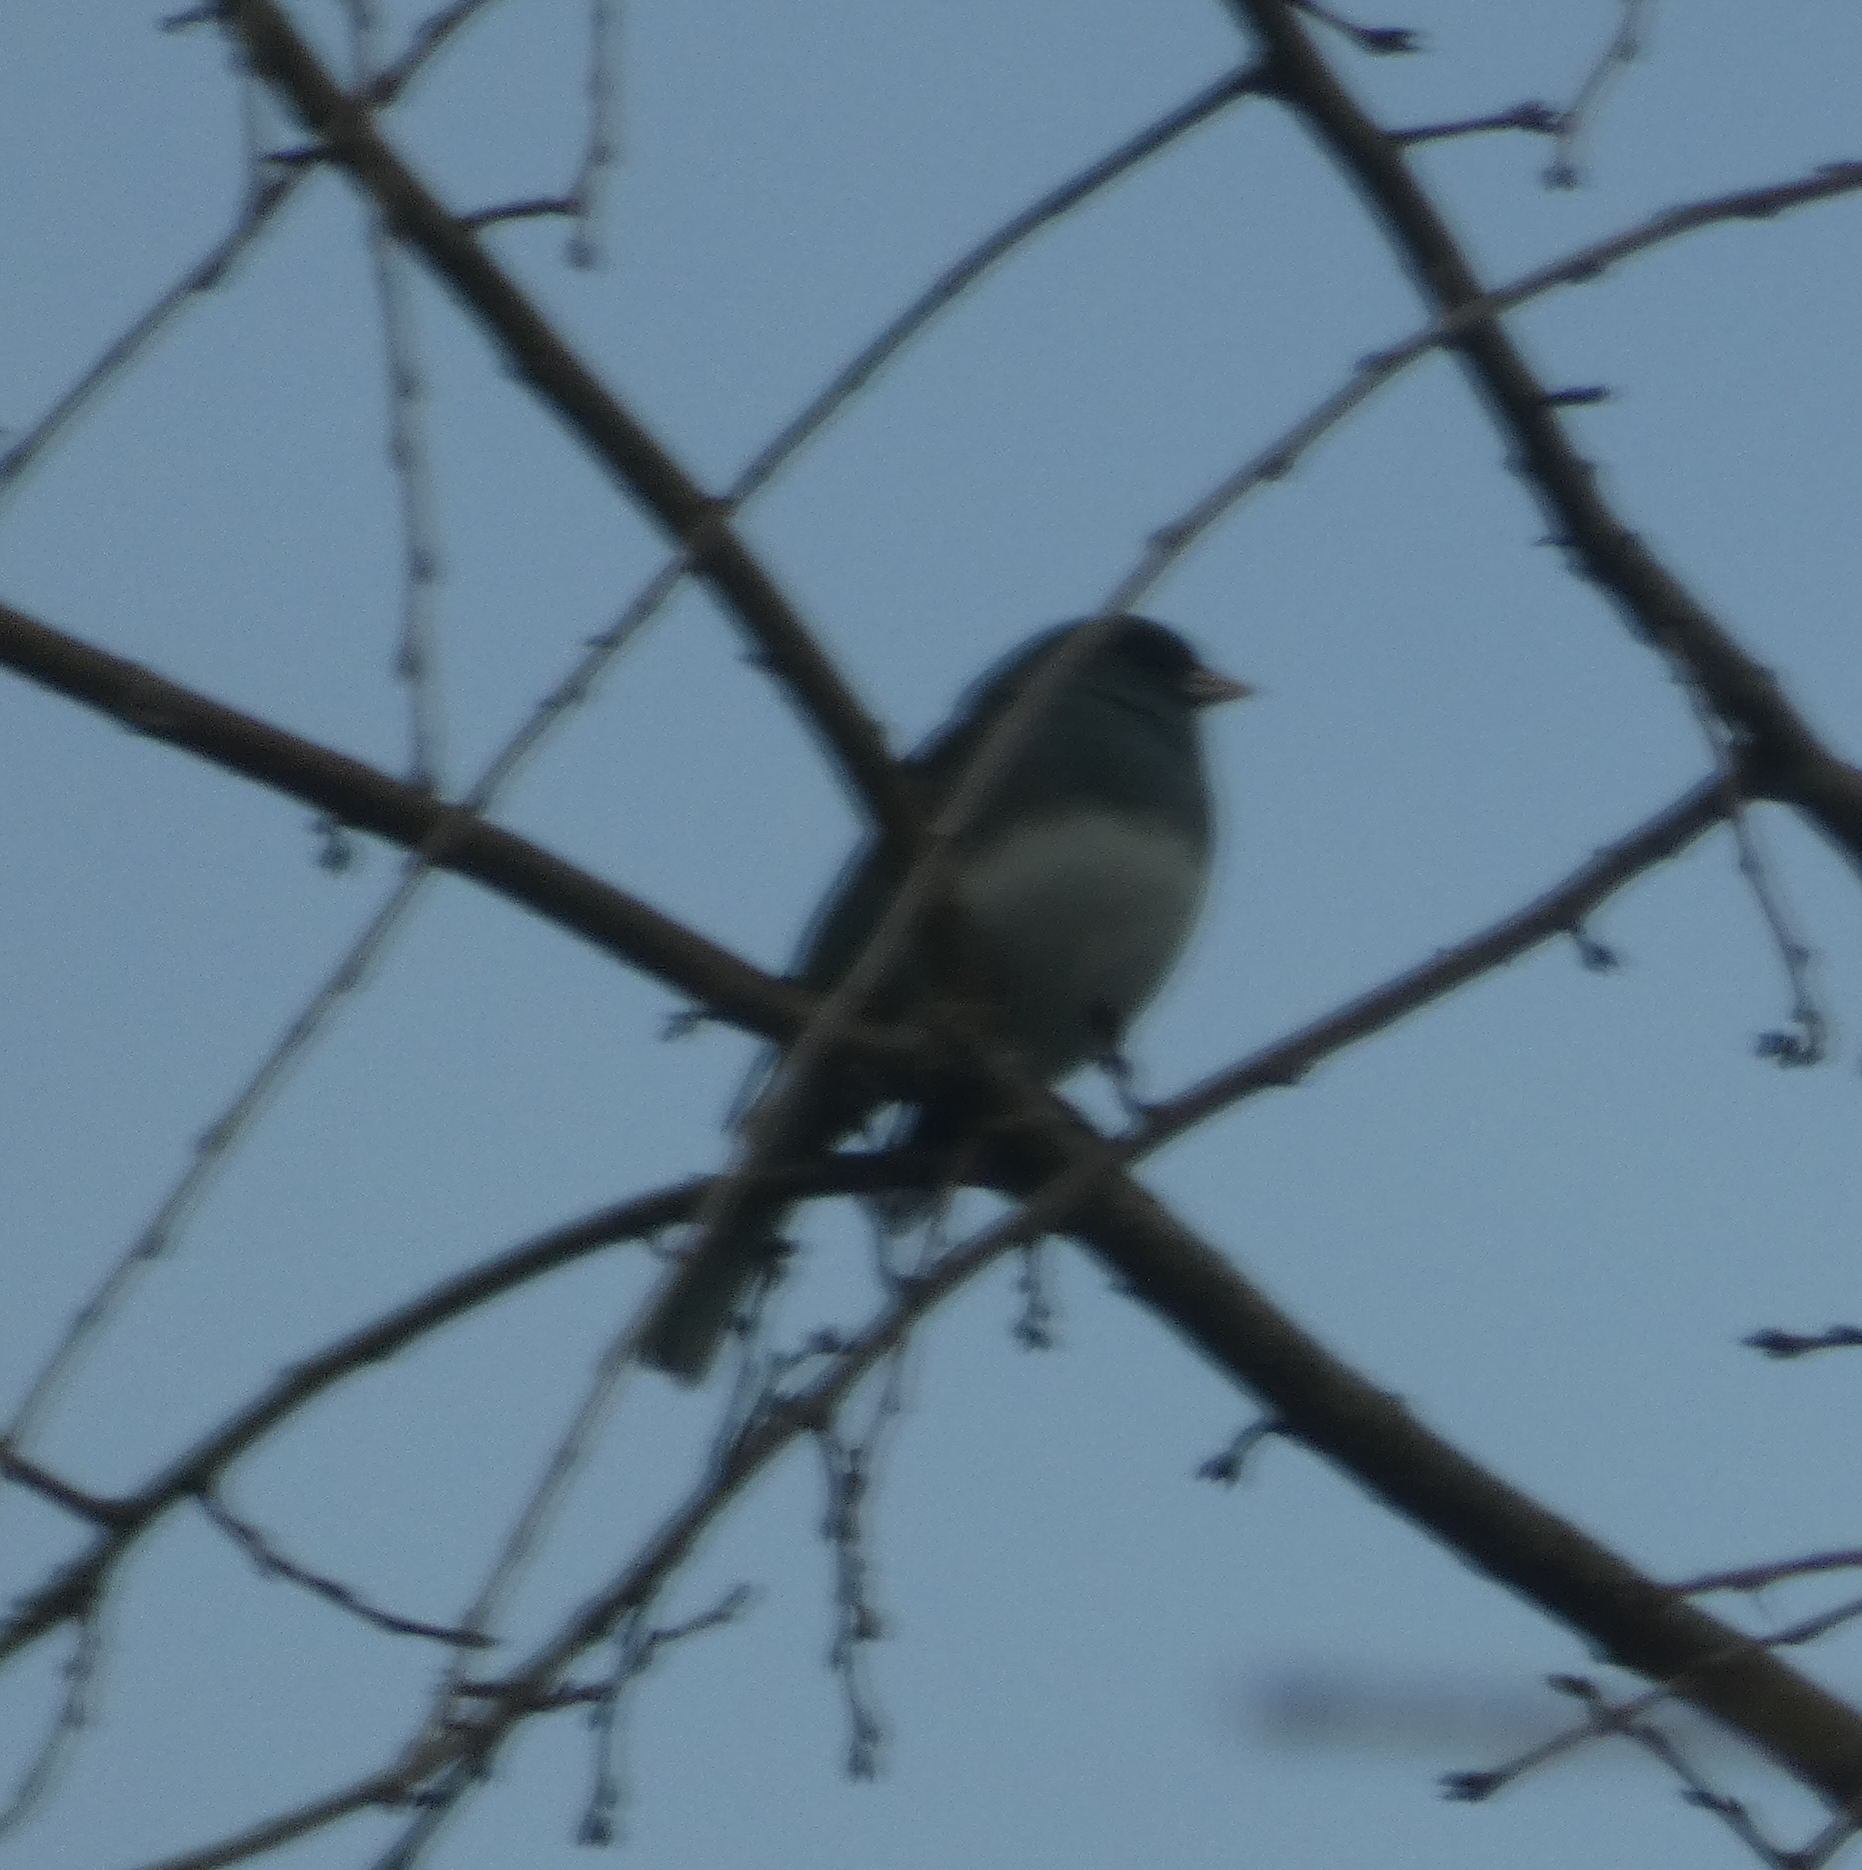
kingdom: Animalia
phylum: Chordata
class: Aves
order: Passeriformes
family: Passerellidae
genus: Junco
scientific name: Junco hyemalis
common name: Dark-eyed junco
